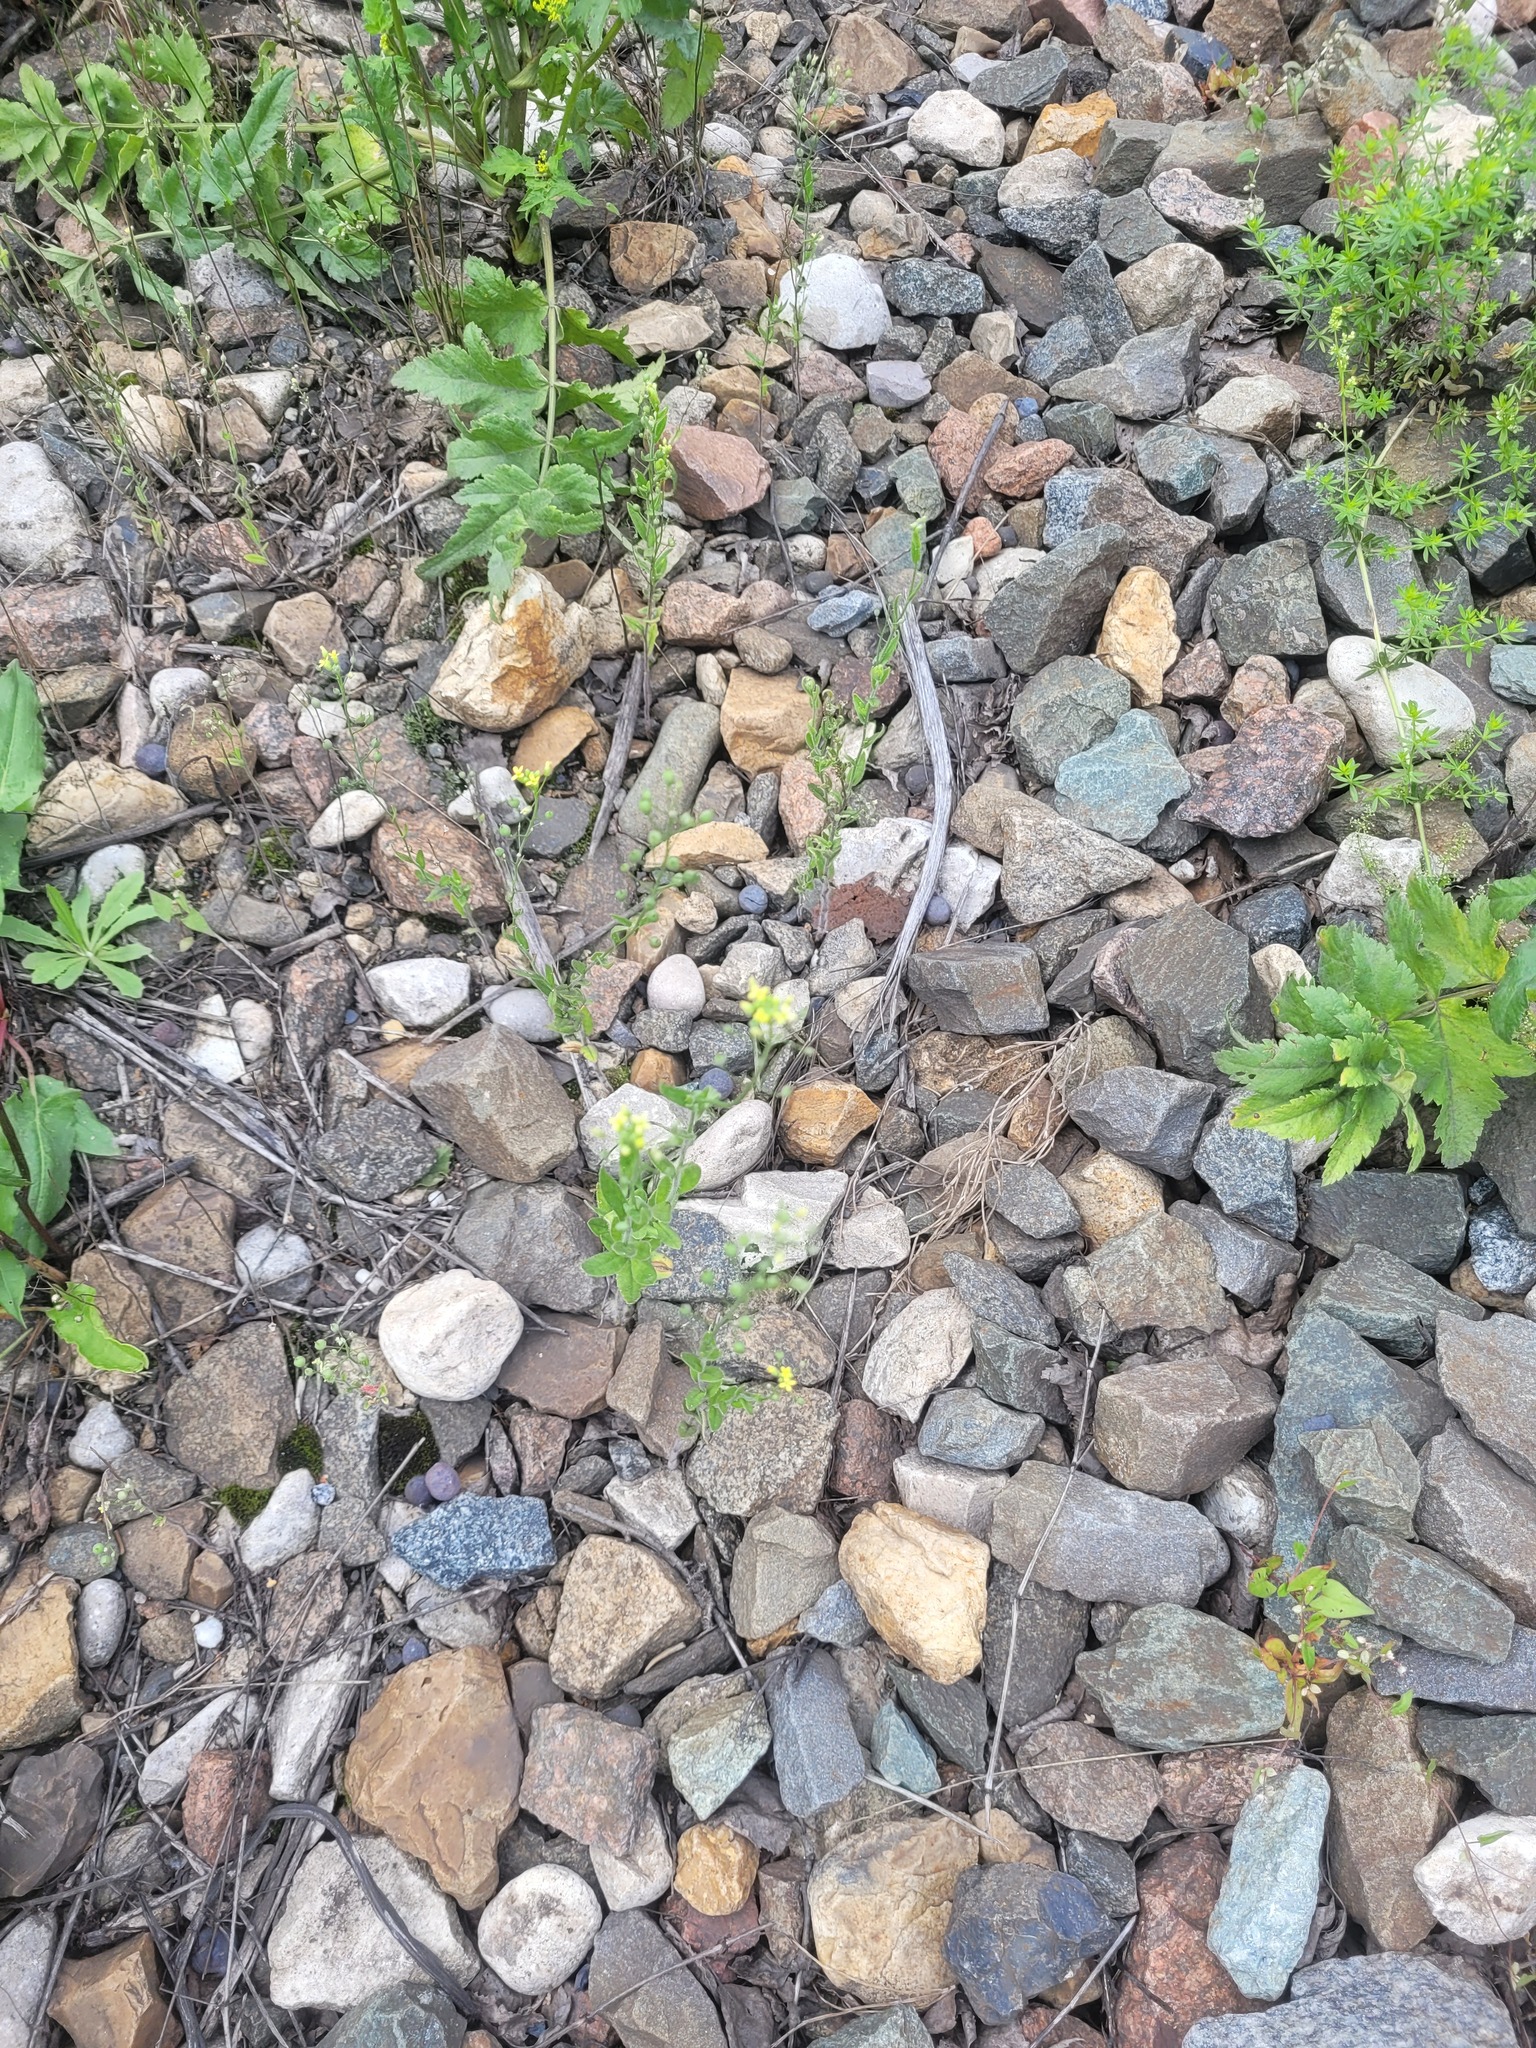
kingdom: Plantae
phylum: Tracheophyta
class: Magnoliopsida
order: Brassicales
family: Brassicaceae
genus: Camelina
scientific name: Camelina microcarpa
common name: Lesser gold-of-pleasure
